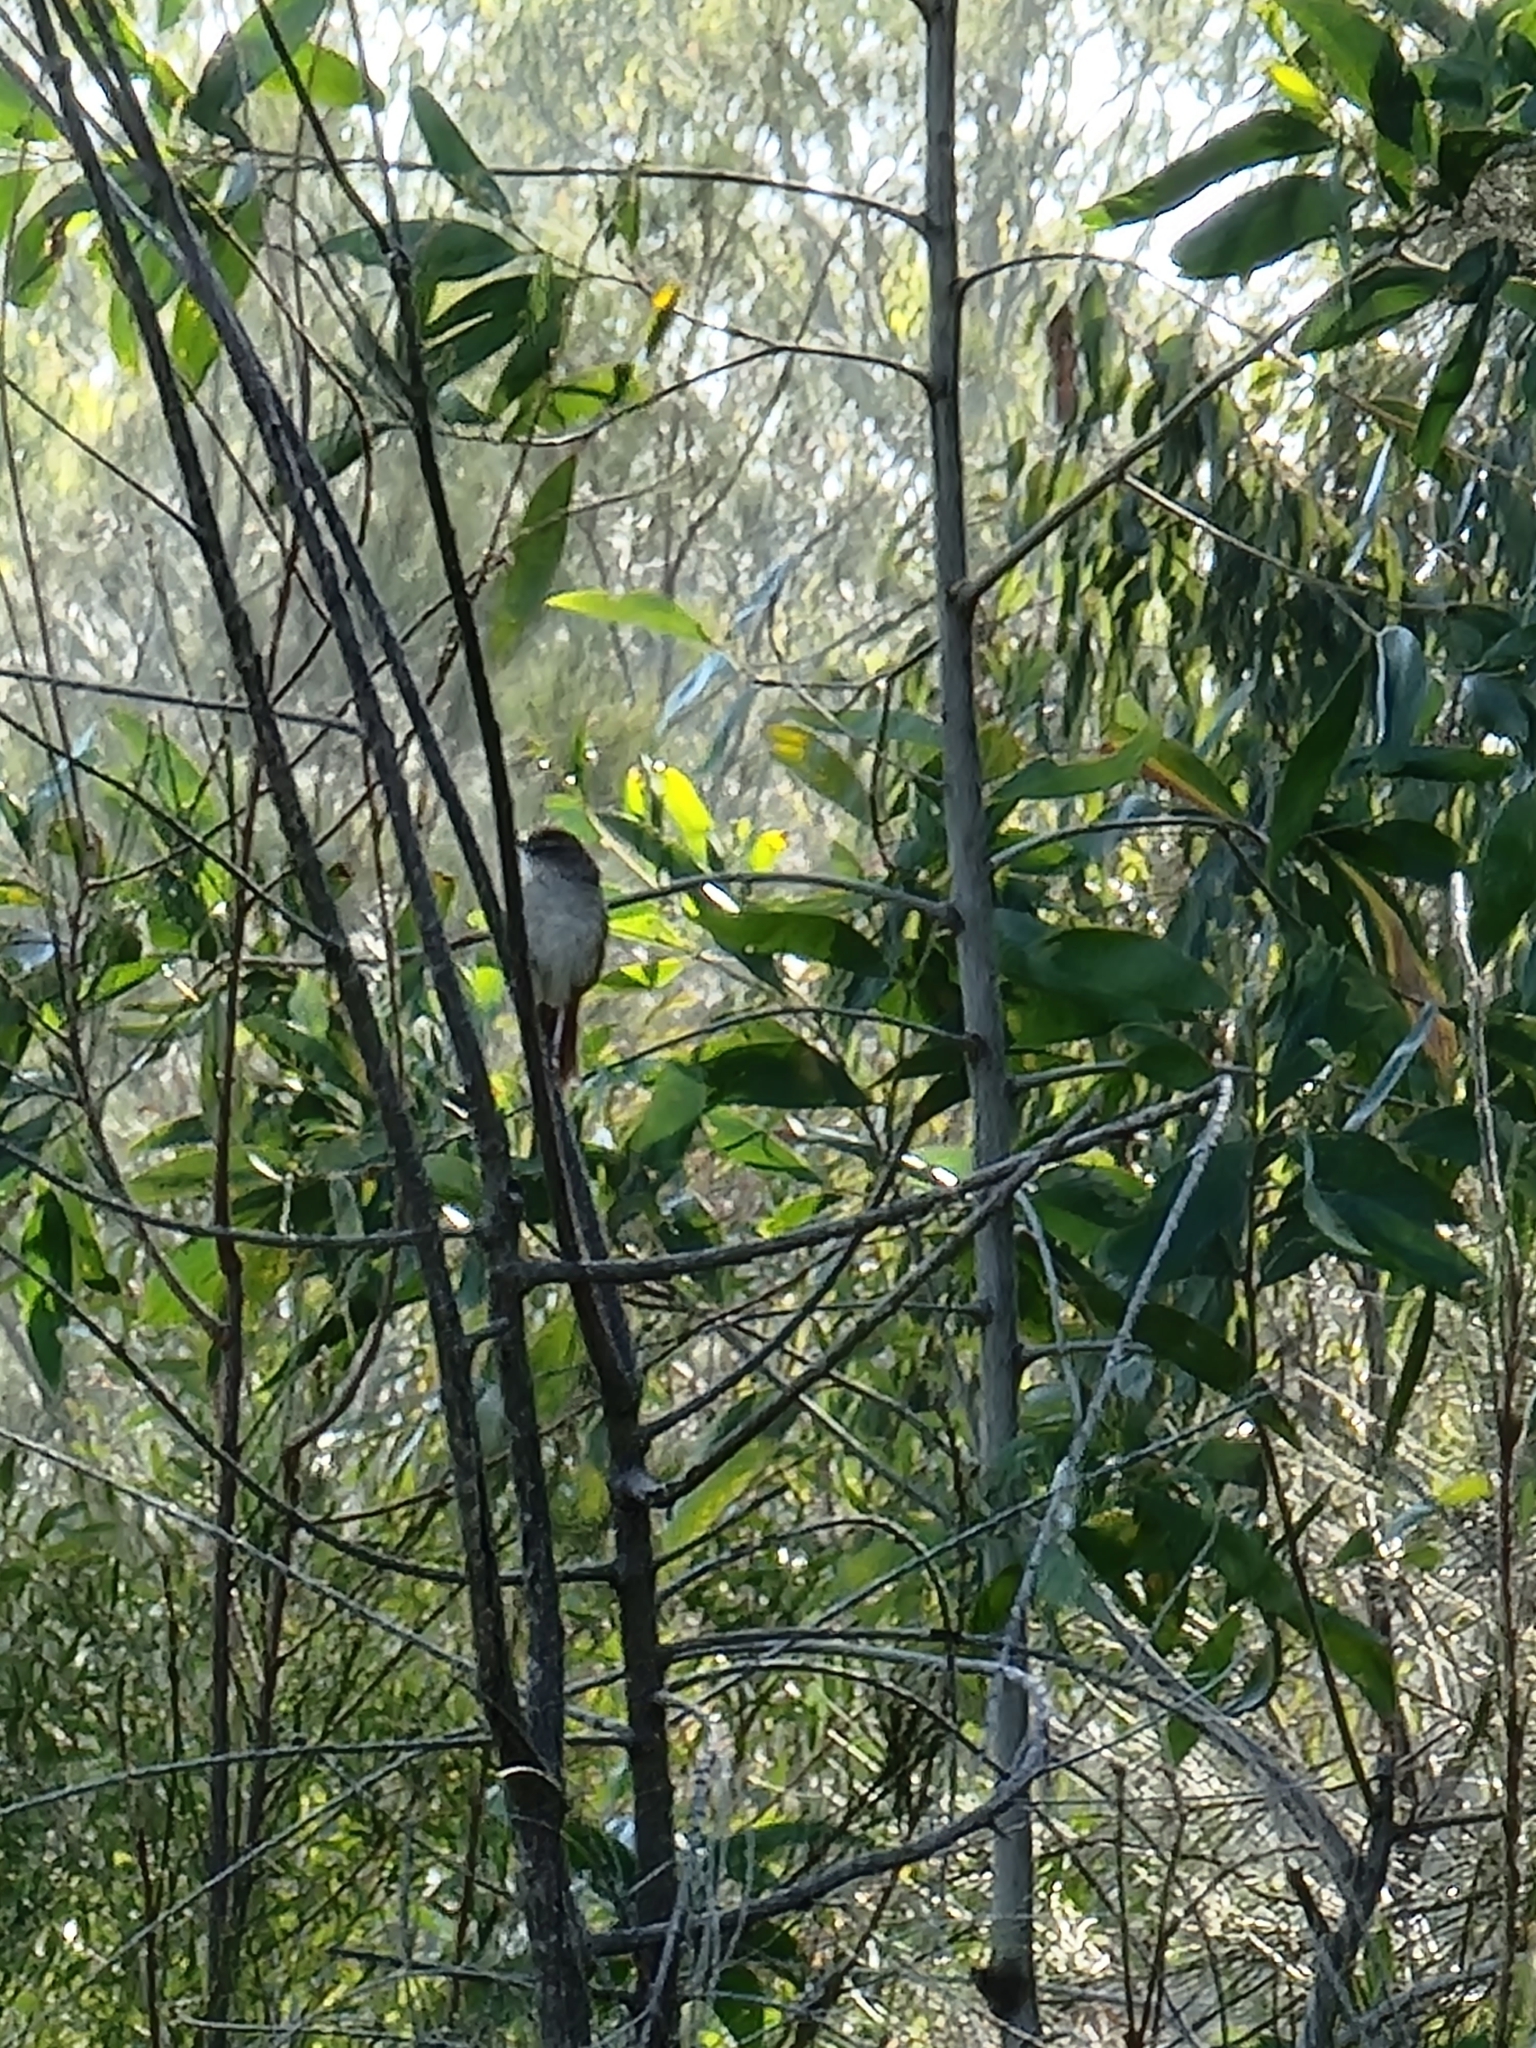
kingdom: Animalia
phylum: Chordata
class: Aves
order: Passeriformes
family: Locustellidae
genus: Megalurus
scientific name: Megalurus timoriensis
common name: Tawny grassbird
